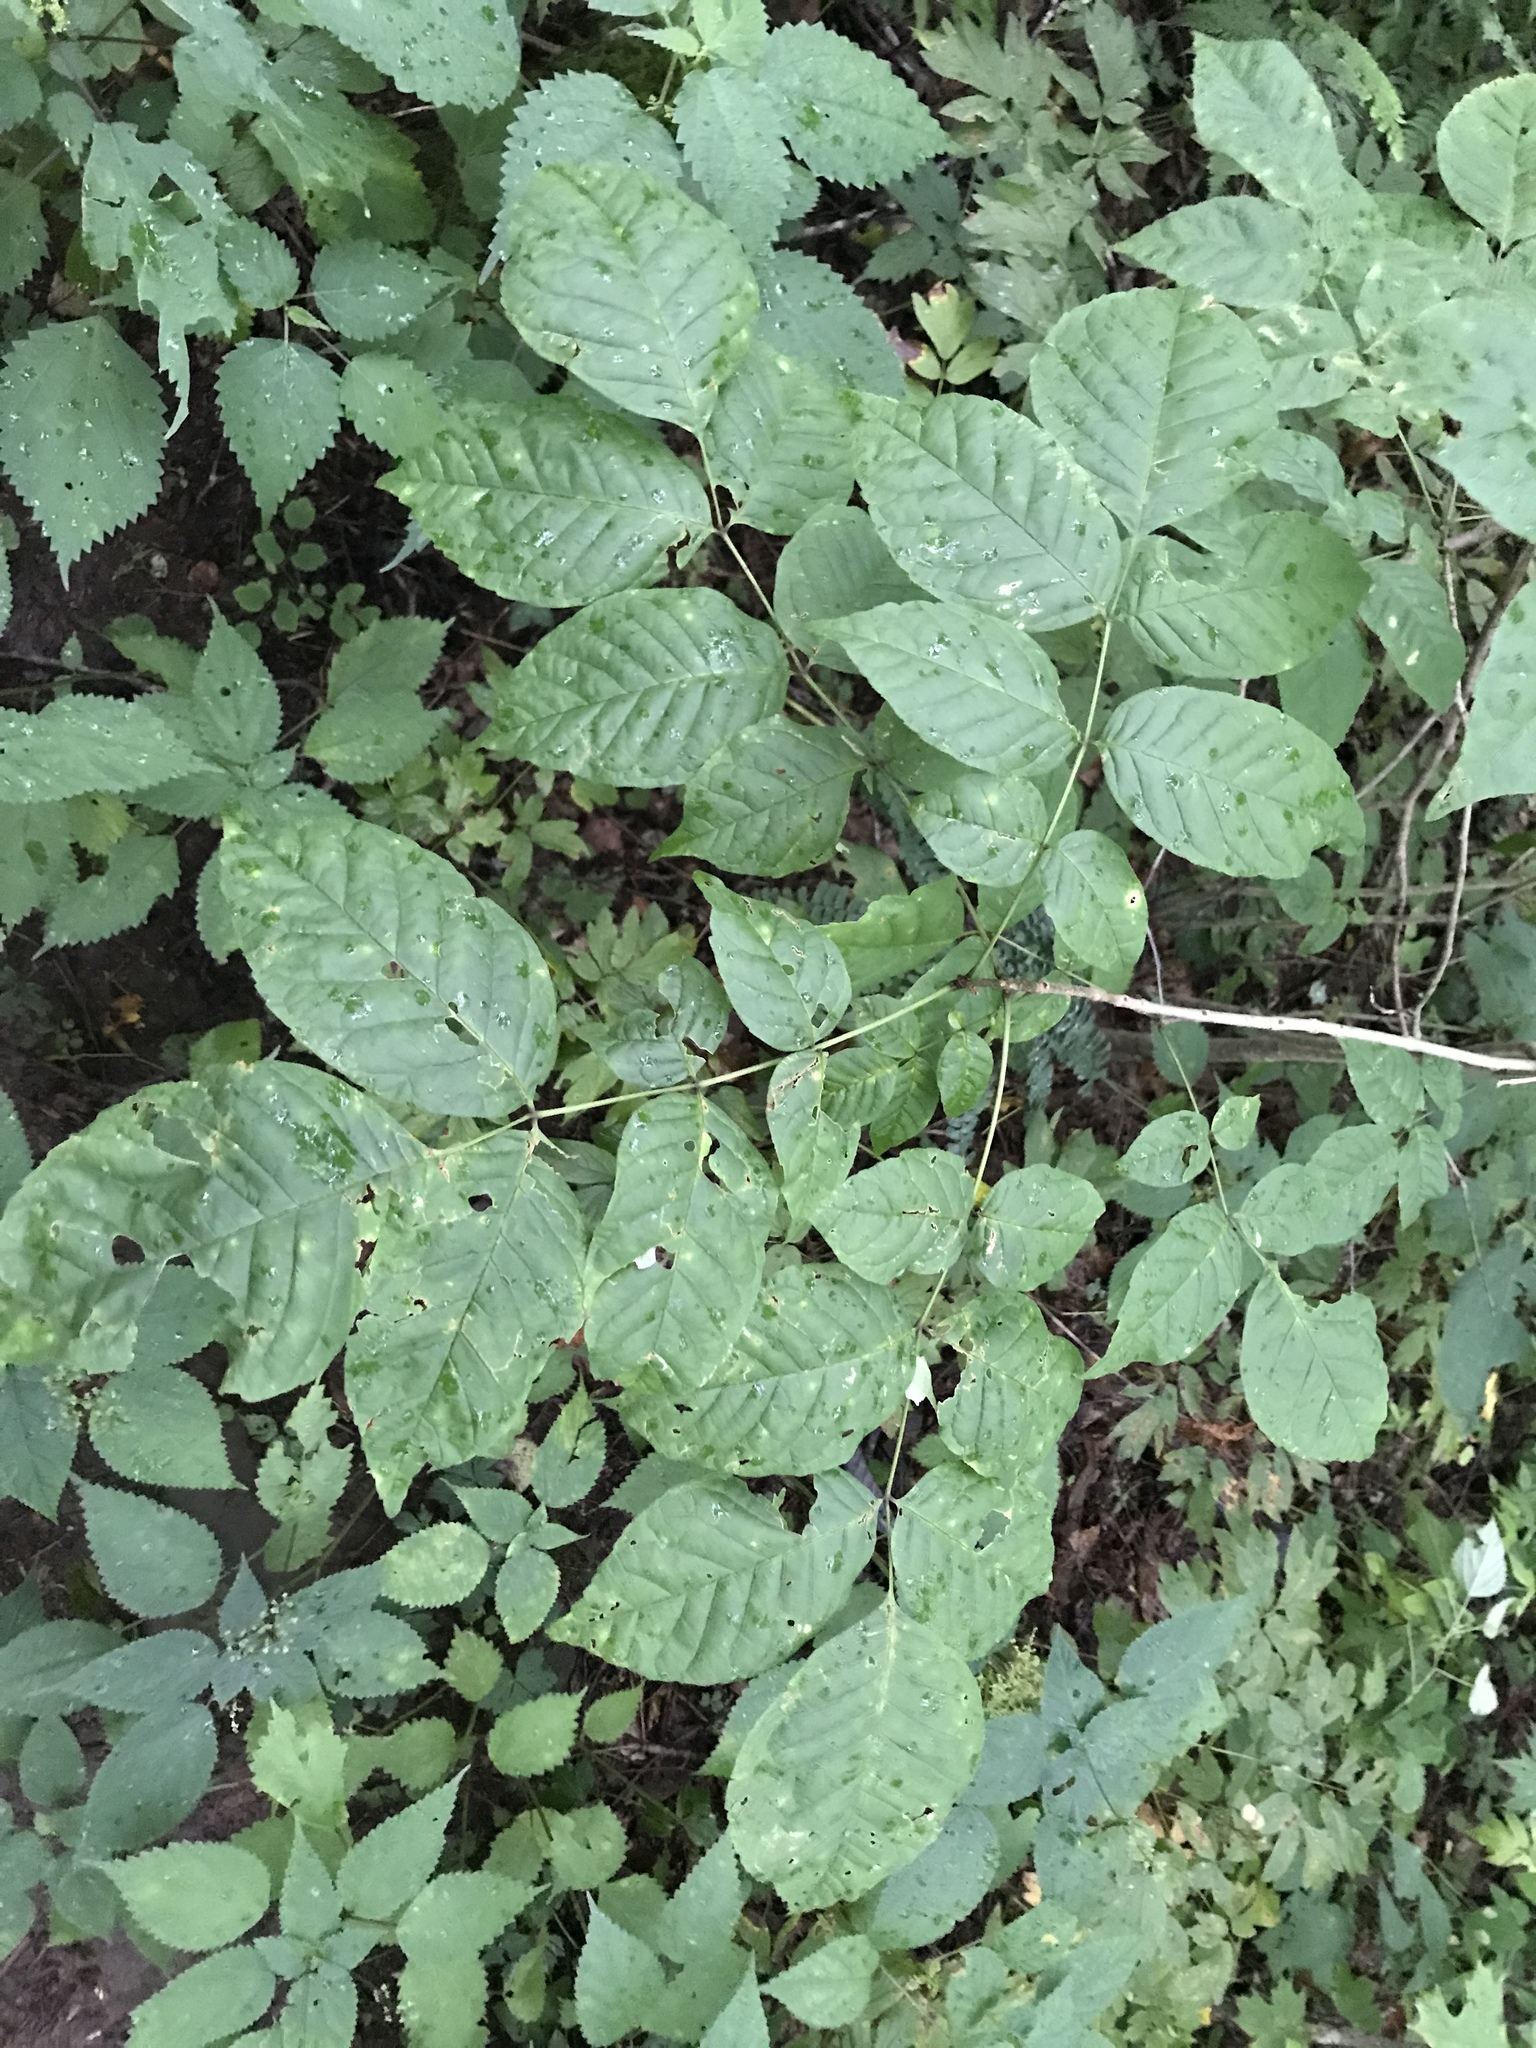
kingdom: Plantae
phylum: Tracheophyta
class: Magnoliopsida
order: Lamiales
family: Oleaceae
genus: Fraxinus
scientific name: Fraxinus americana
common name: White ash
